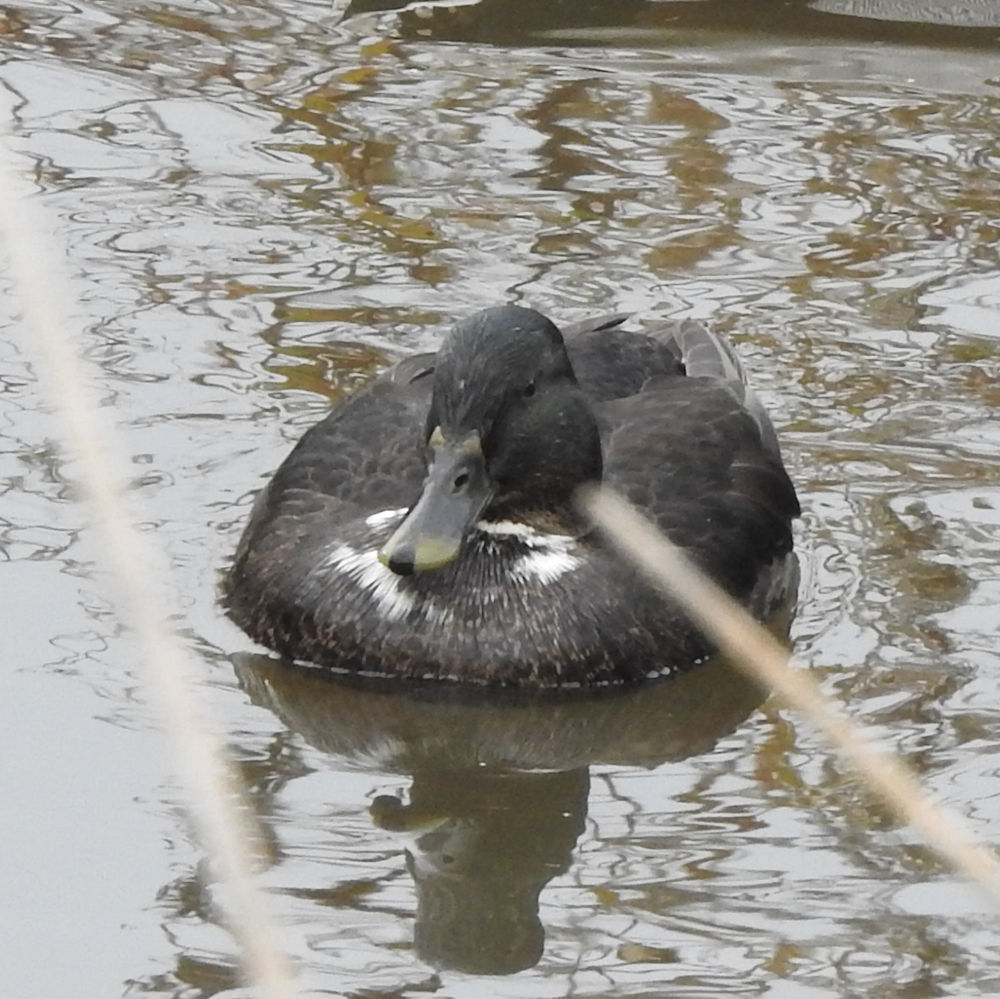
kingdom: Animalia
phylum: Chordata
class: Aves
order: Anseriformes
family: Anatidae
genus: Anas
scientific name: Anas platyrhynchos
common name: Mallard
